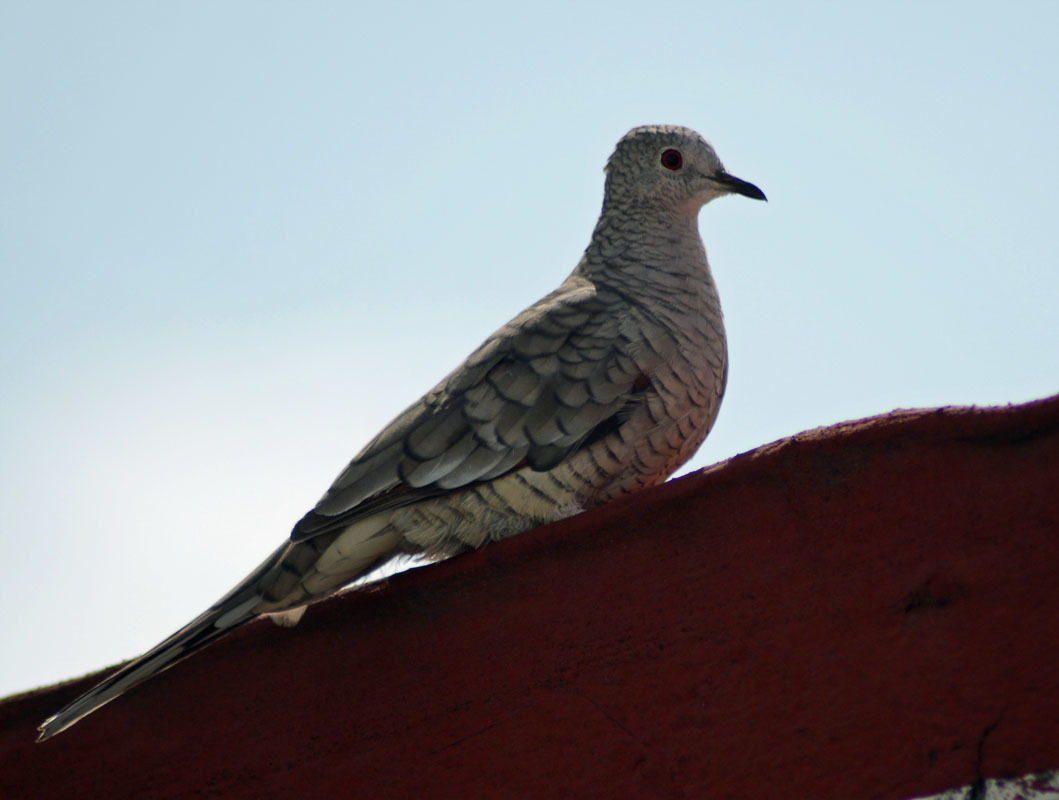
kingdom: Animalia
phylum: Chordata
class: Aves
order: Columbiformes
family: Columbidae
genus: Columbina
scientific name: Columbina inca
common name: Inca dove
